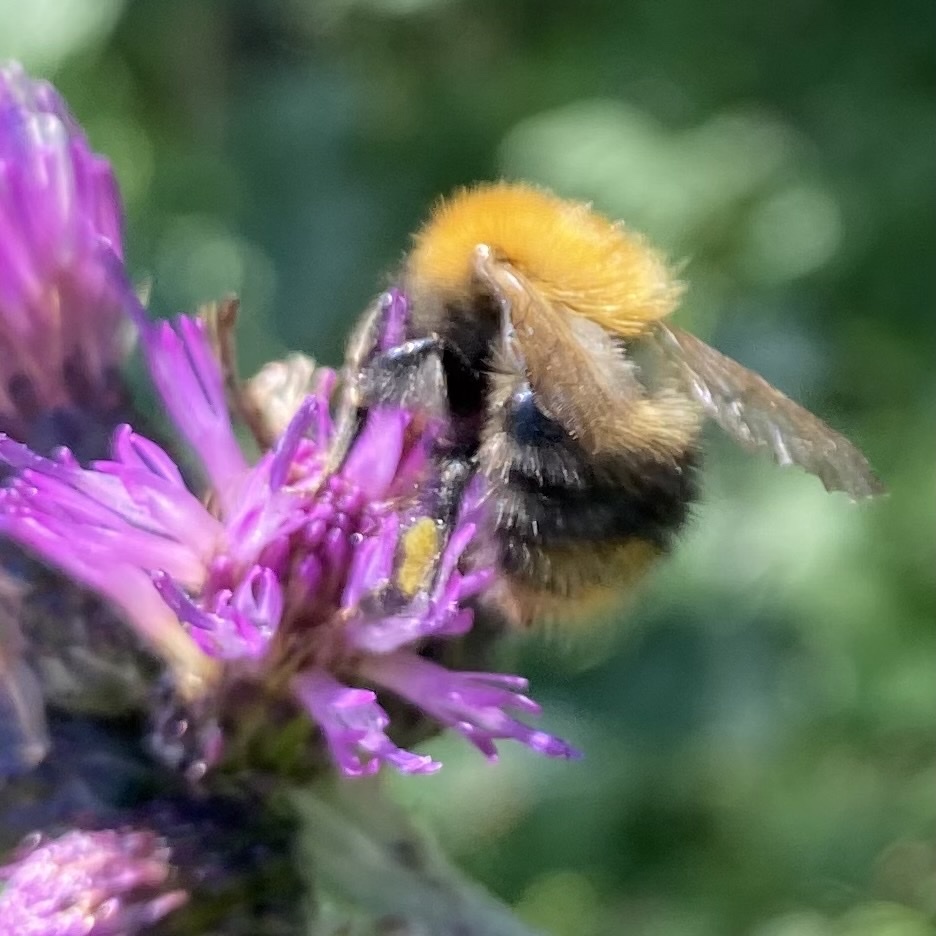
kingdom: Animalia
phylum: Arthropoda
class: Insecta
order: Hymenoptera
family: Apidae
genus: Bombus
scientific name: Bombus pascuorum
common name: Common carder bee
